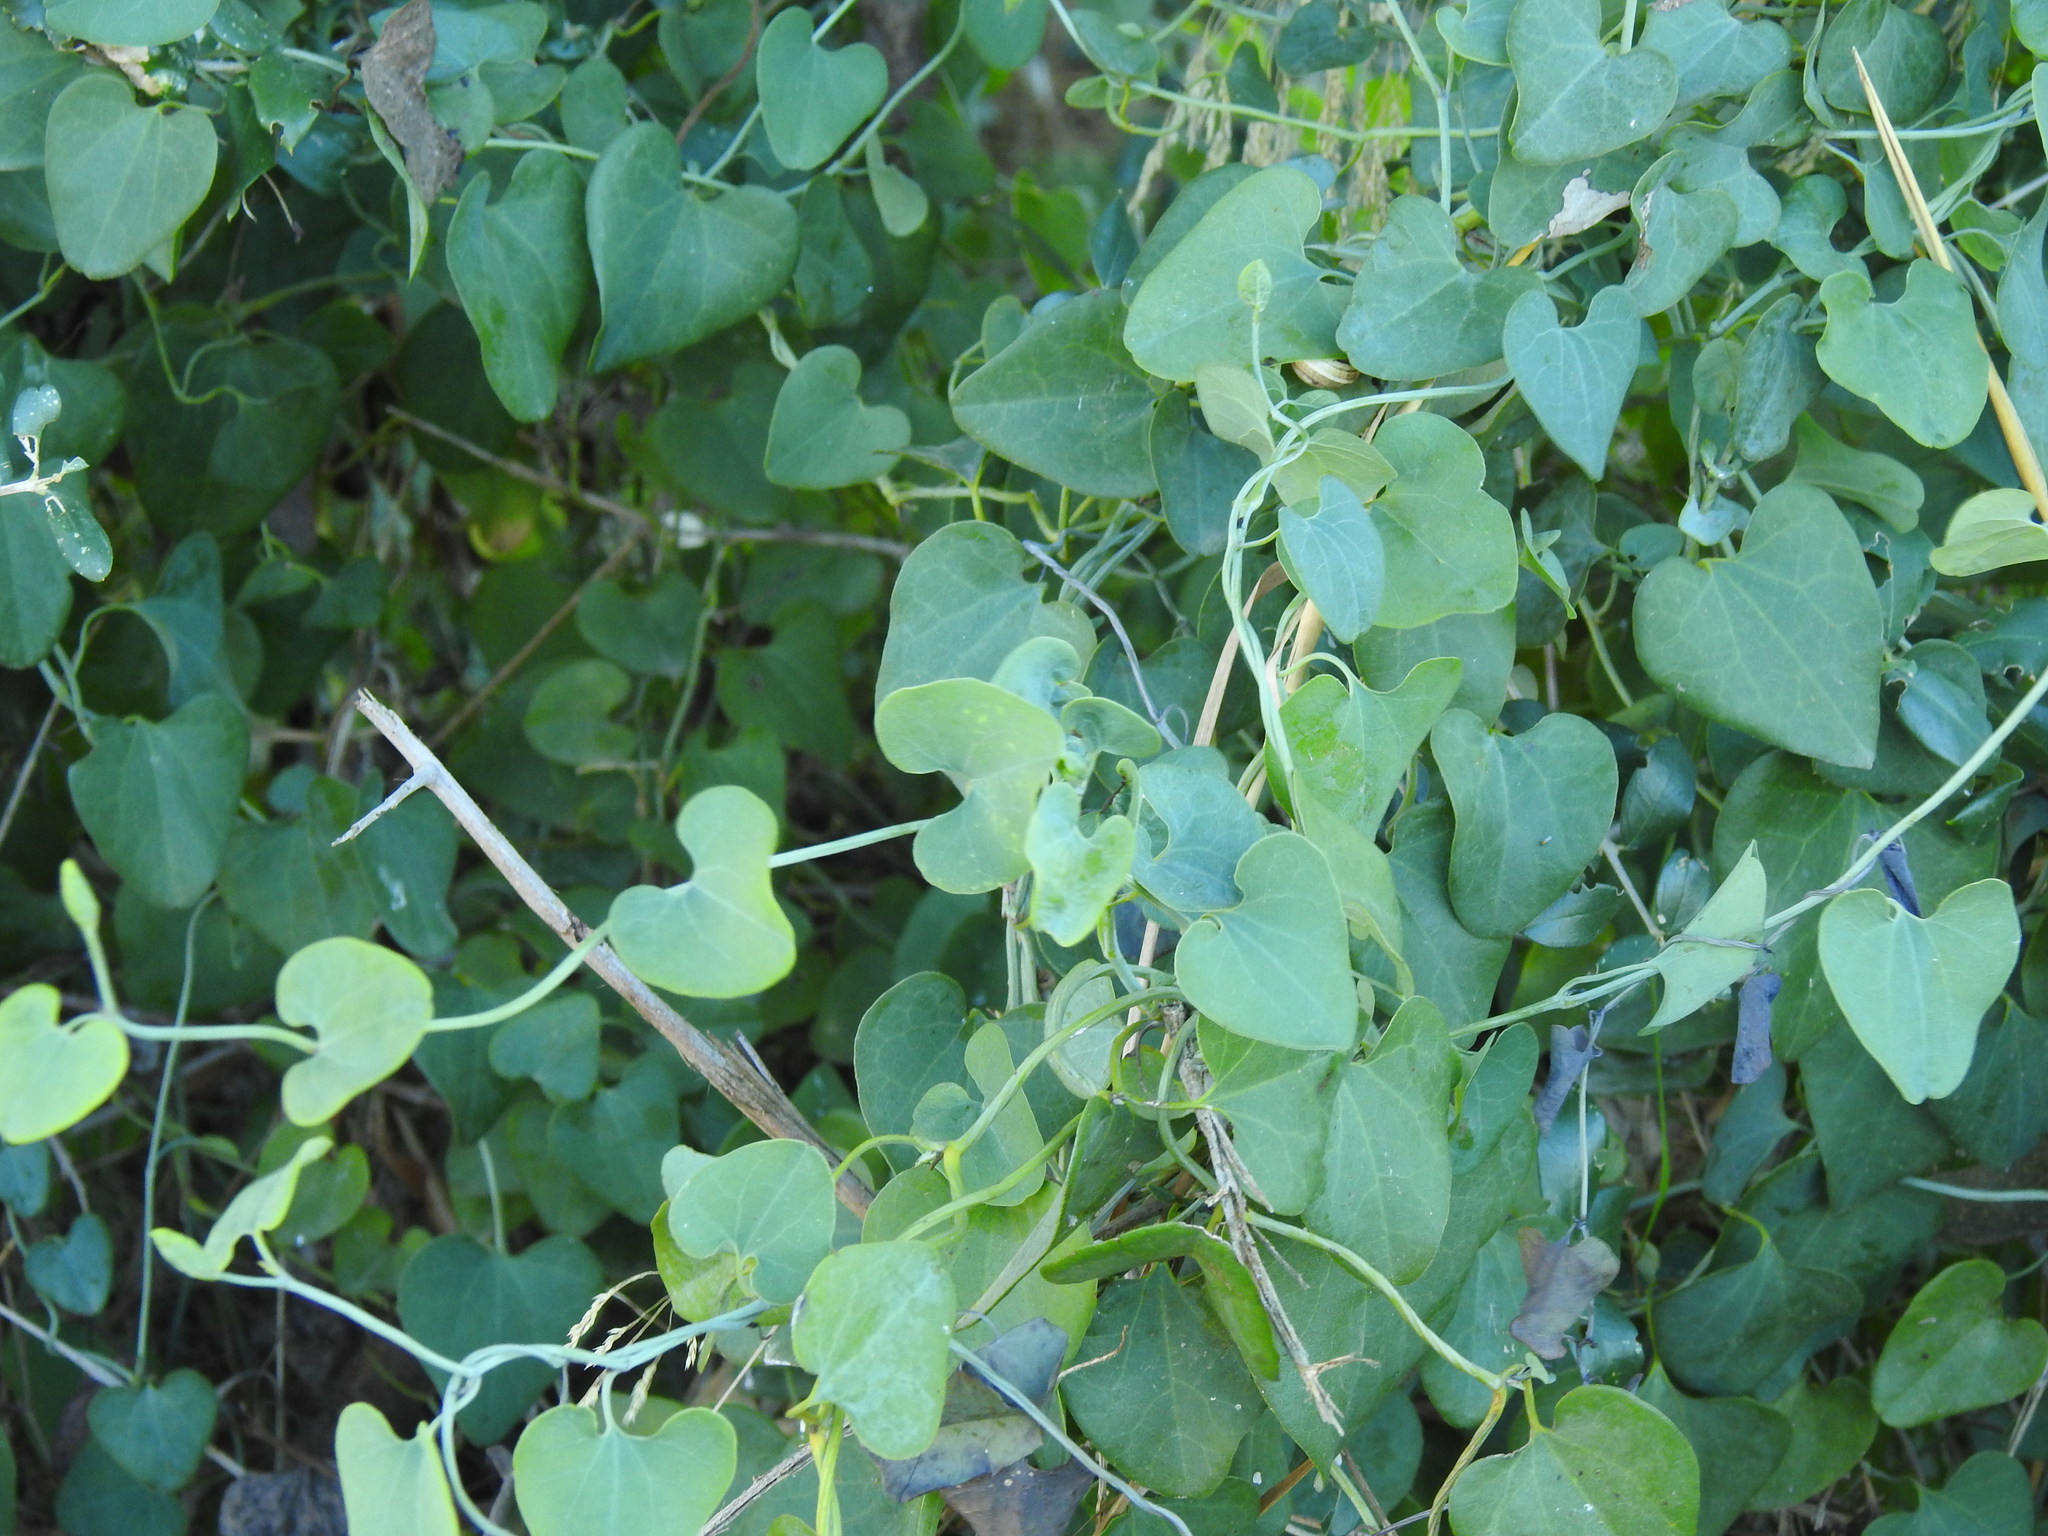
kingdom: Plantae
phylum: Tracheophyta
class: Magnoliopsida
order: Piperales
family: Aristolochiaceae
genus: Aristolochia
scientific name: Aristolochia baetica
